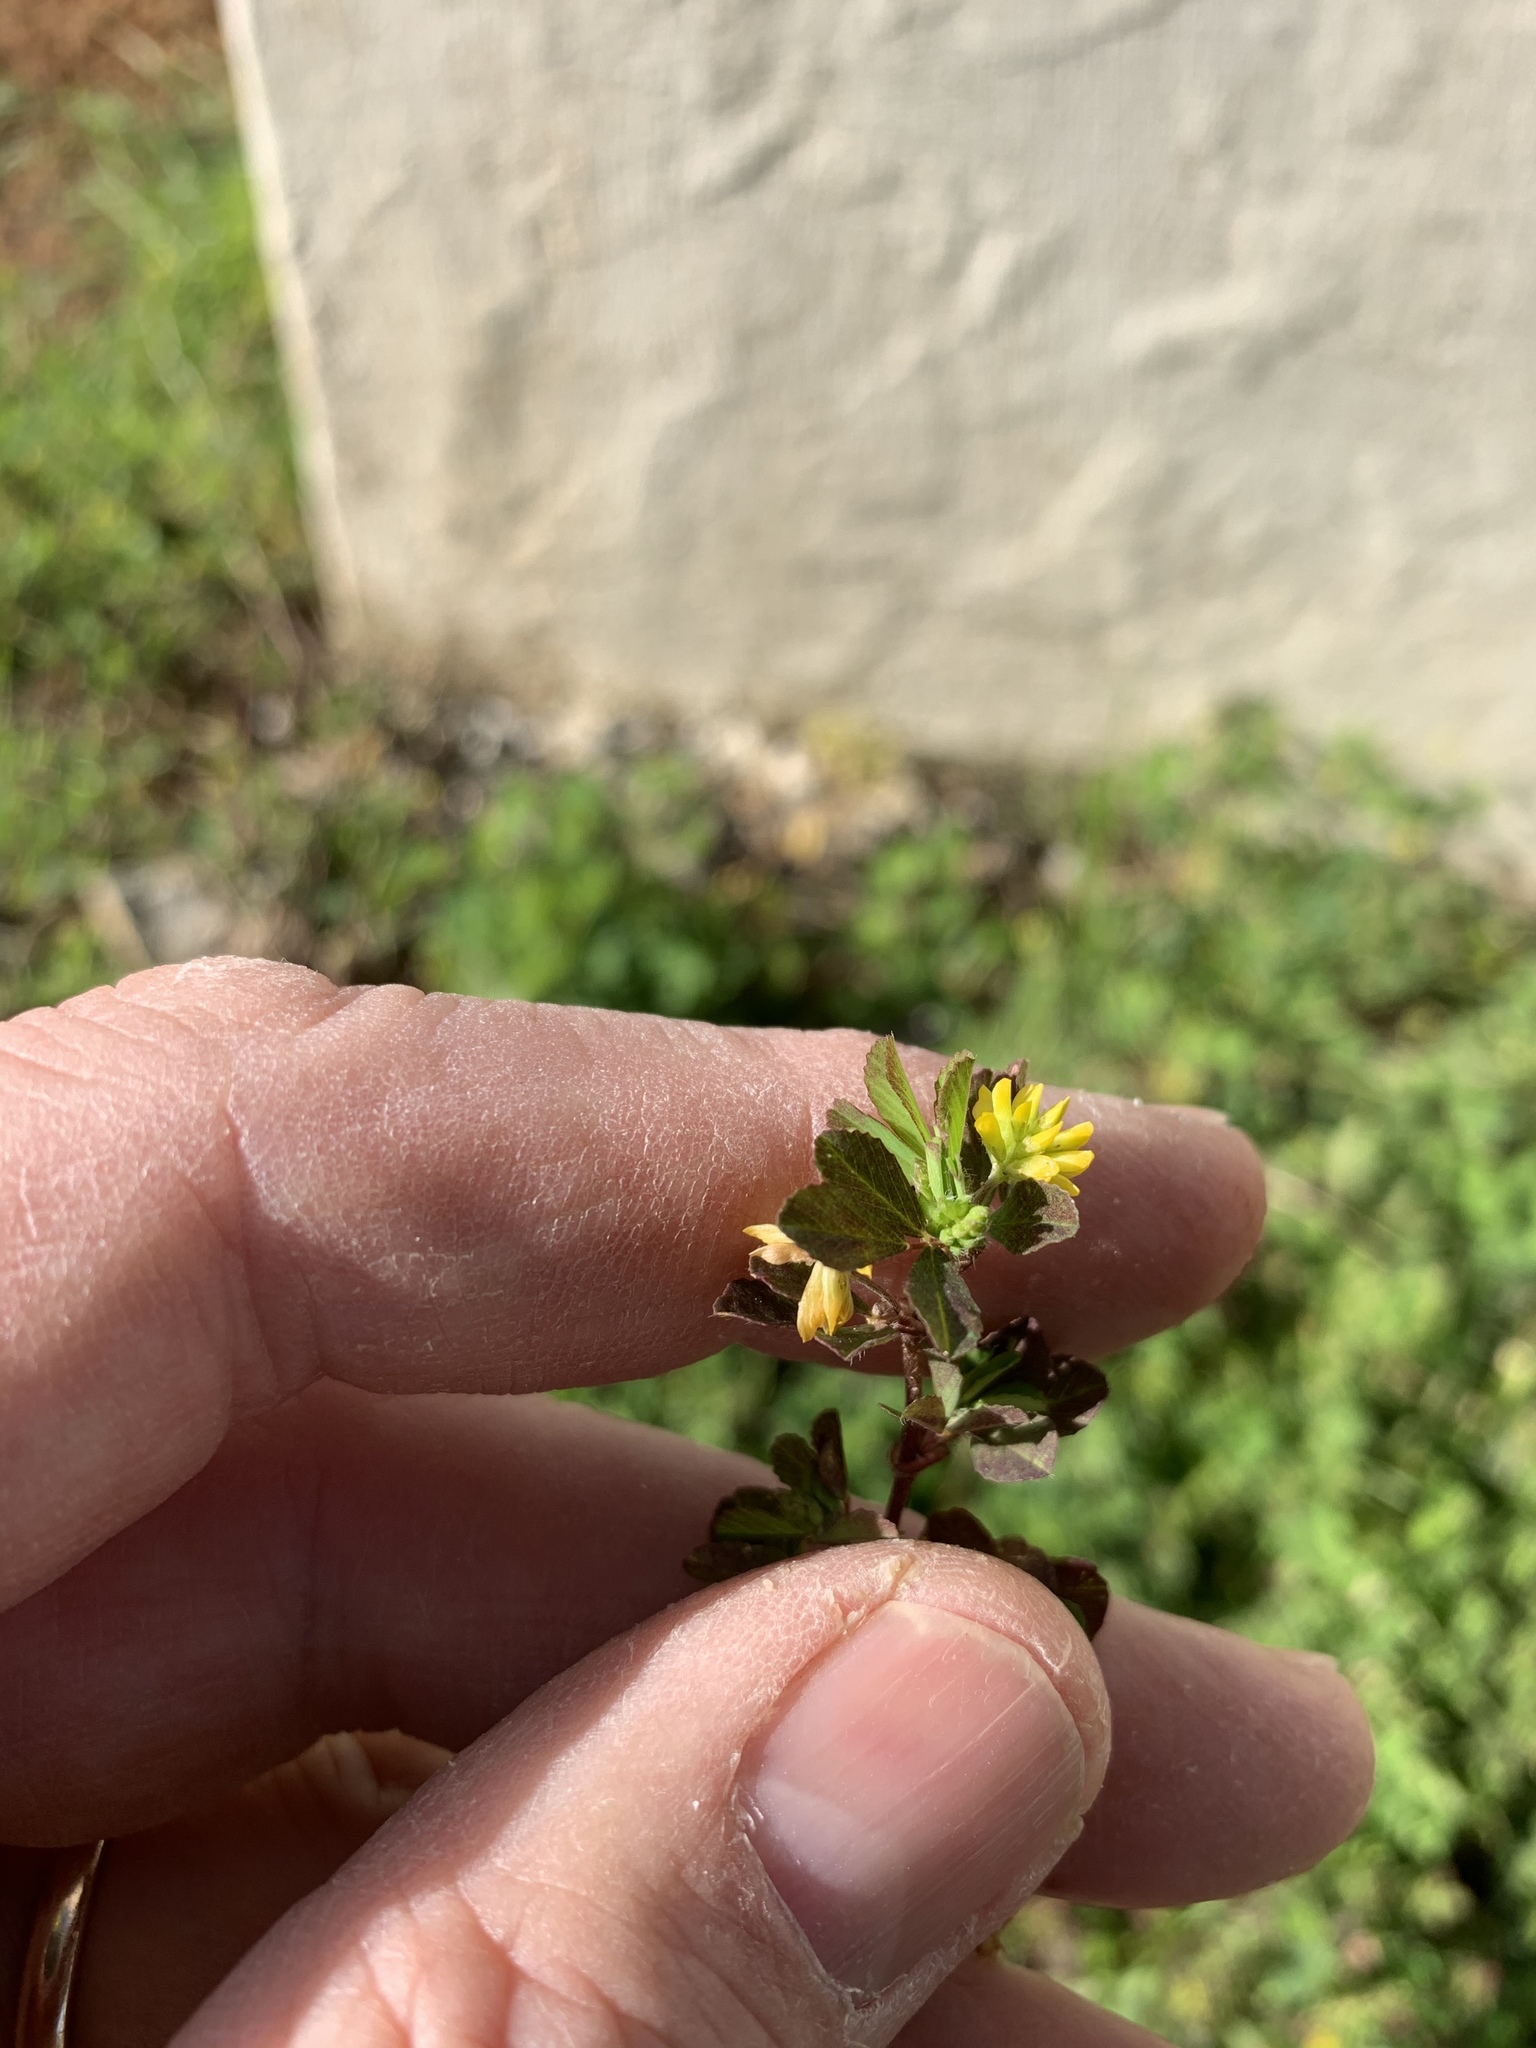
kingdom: Plantae
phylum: Tracheophyta
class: Magnoliopsida
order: Fabales
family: Fabaceae
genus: Trifolium
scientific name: Trifolium dubium
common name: Suckling clover
